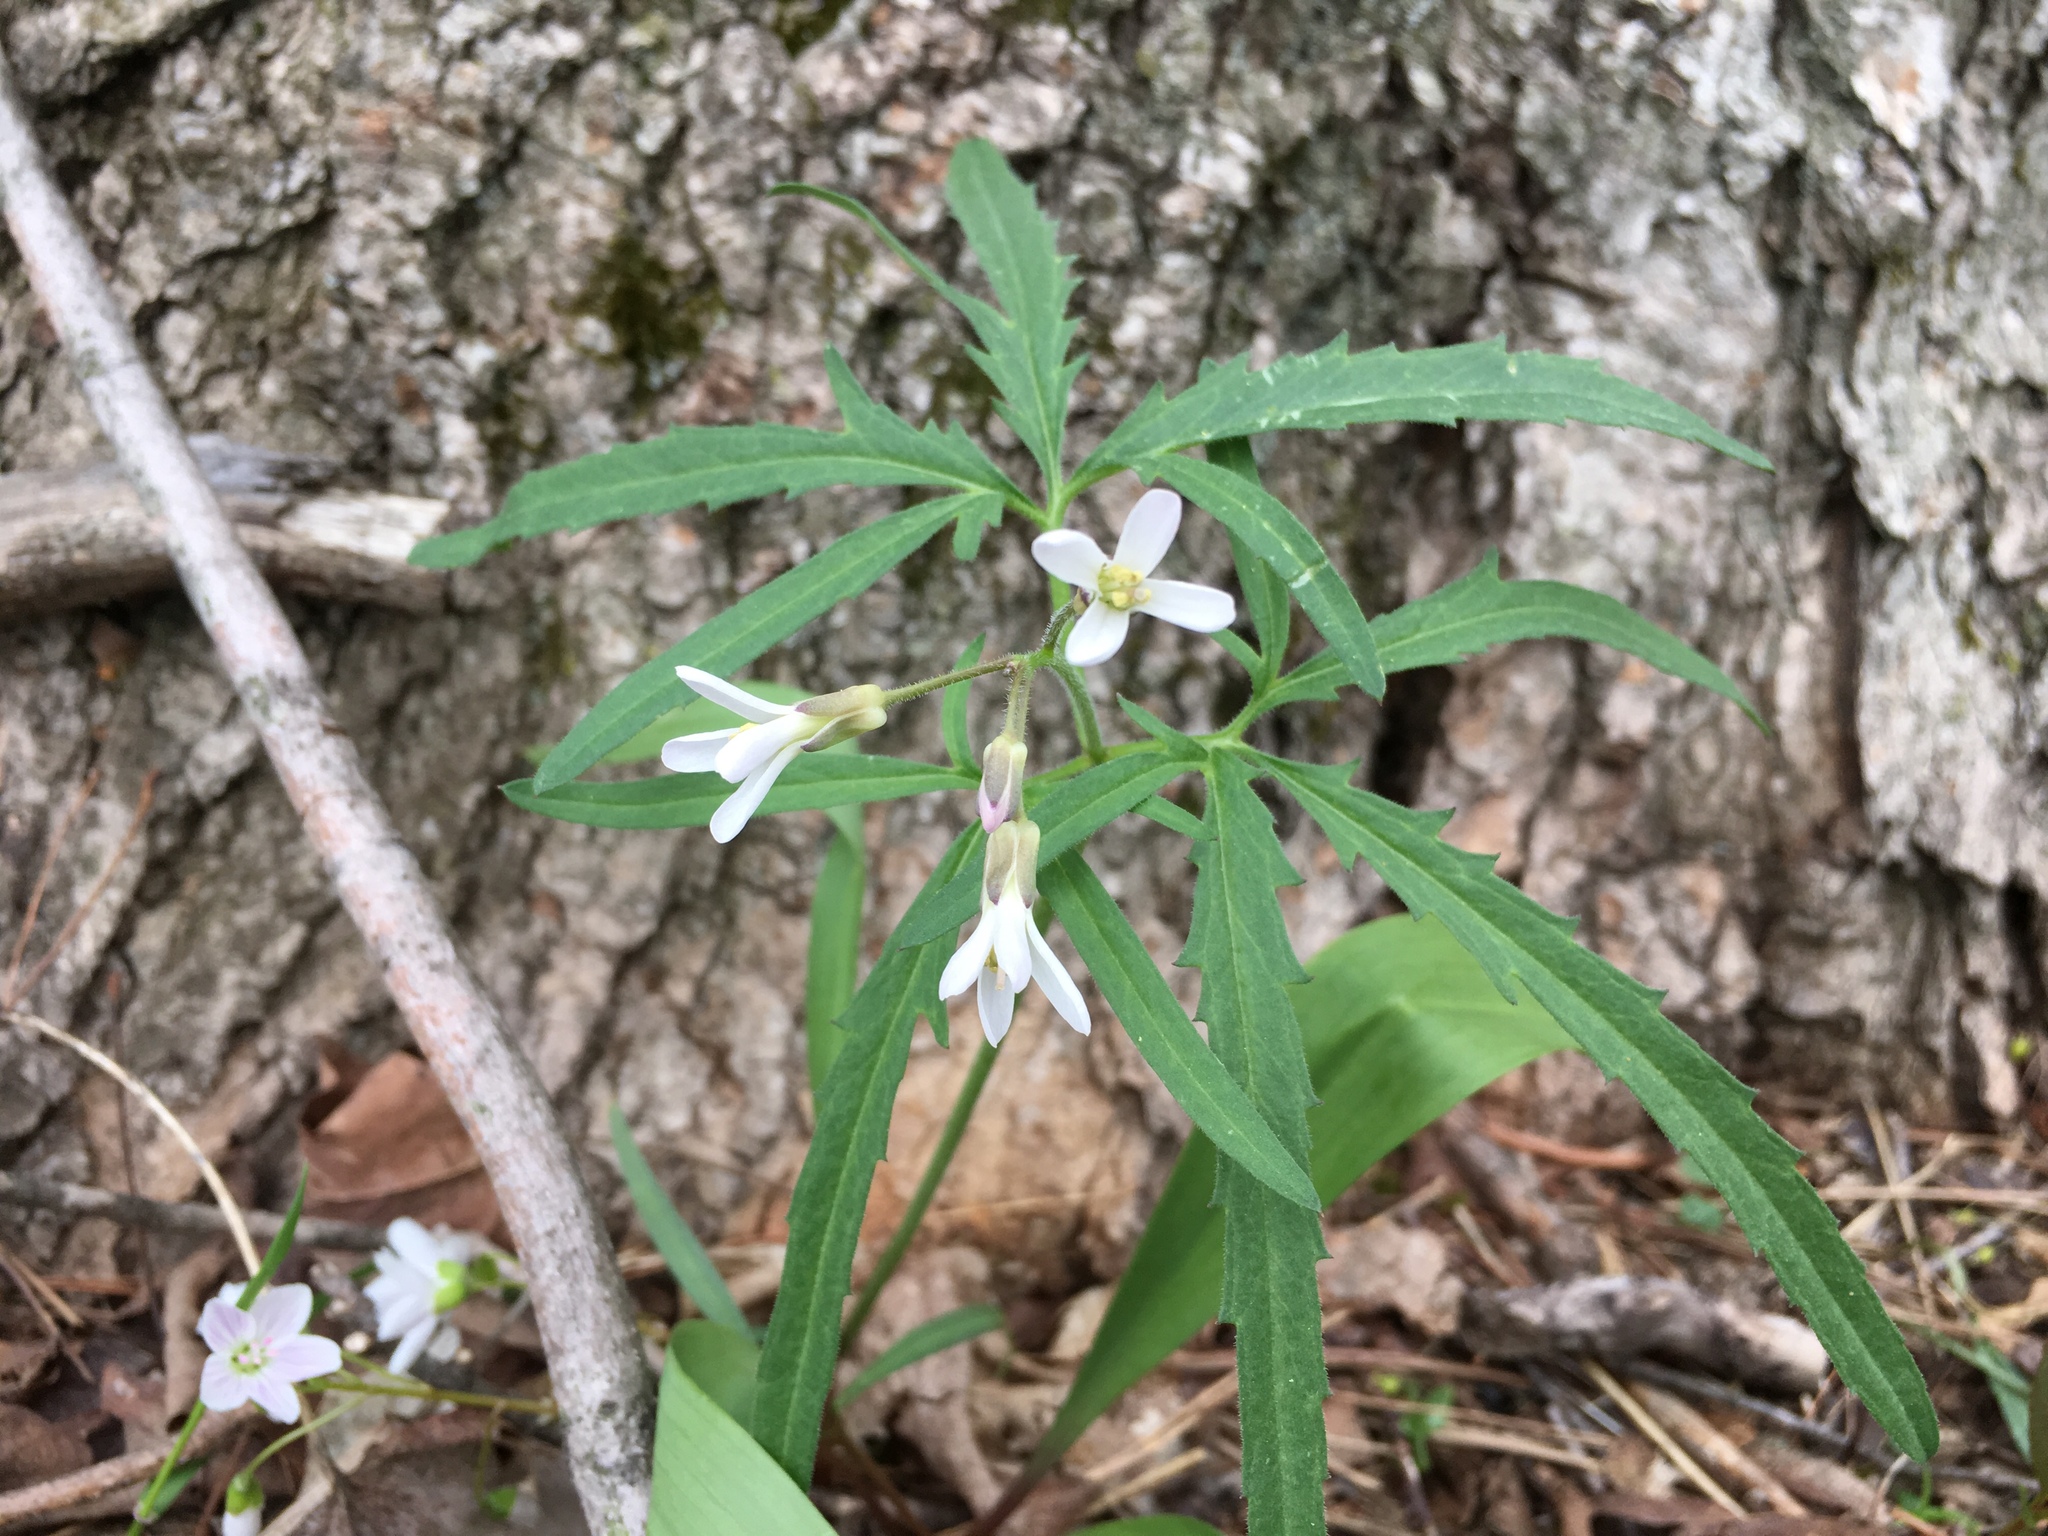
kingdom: Plantae
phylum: Tracheophyta
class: Magnoliopsida
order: Brassicales
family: Brassicaceae
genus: Cardamine
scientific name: Cardamine concatenata
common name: Cut-leaf toothcup
